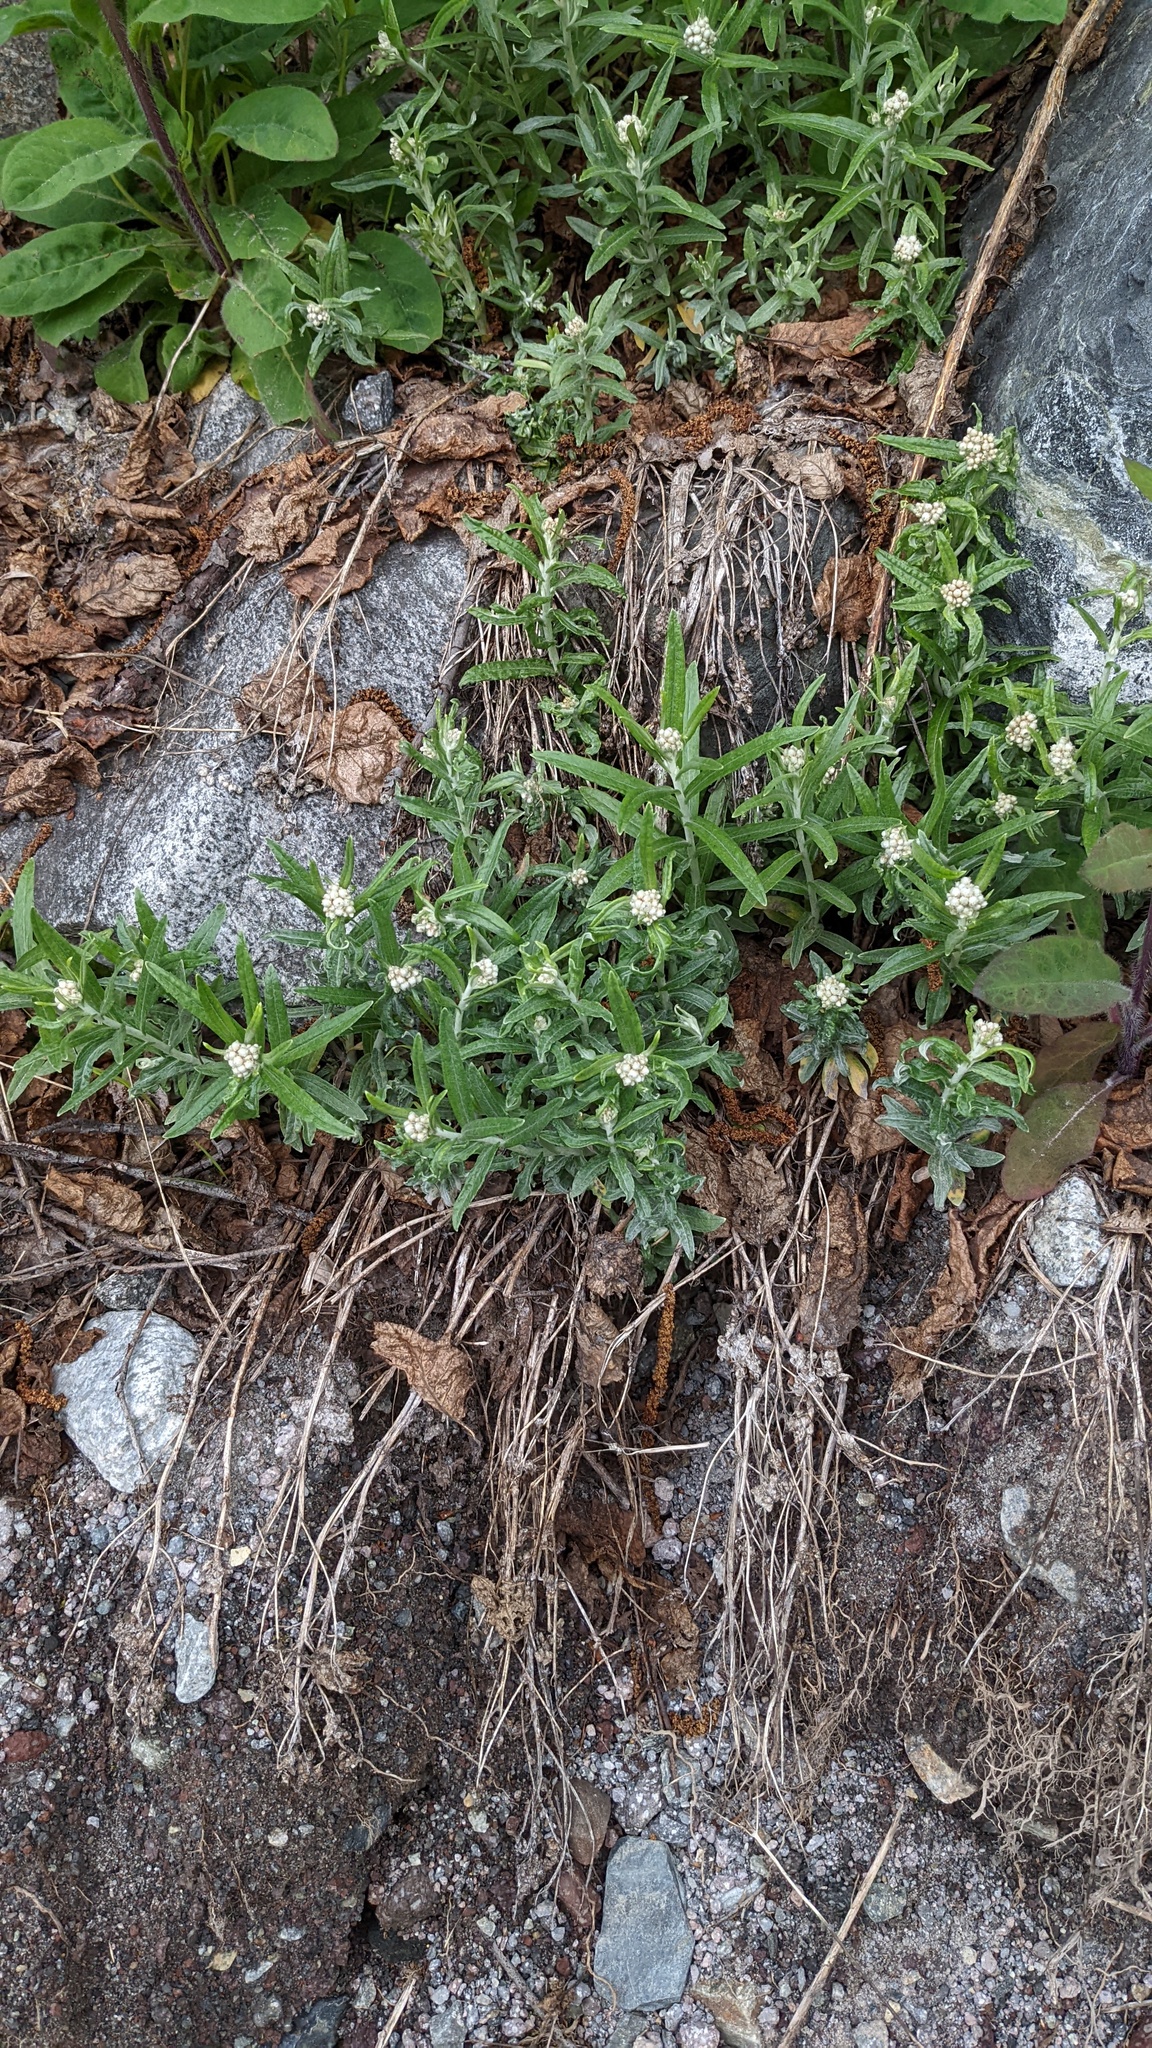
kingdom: Plantae
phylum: Tracheophyta
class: Magnoliopsida
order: Asterales
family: Asteraceae
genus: Anaphalis
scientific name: Anaphalis margaritacea
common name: Pearly everlasting
